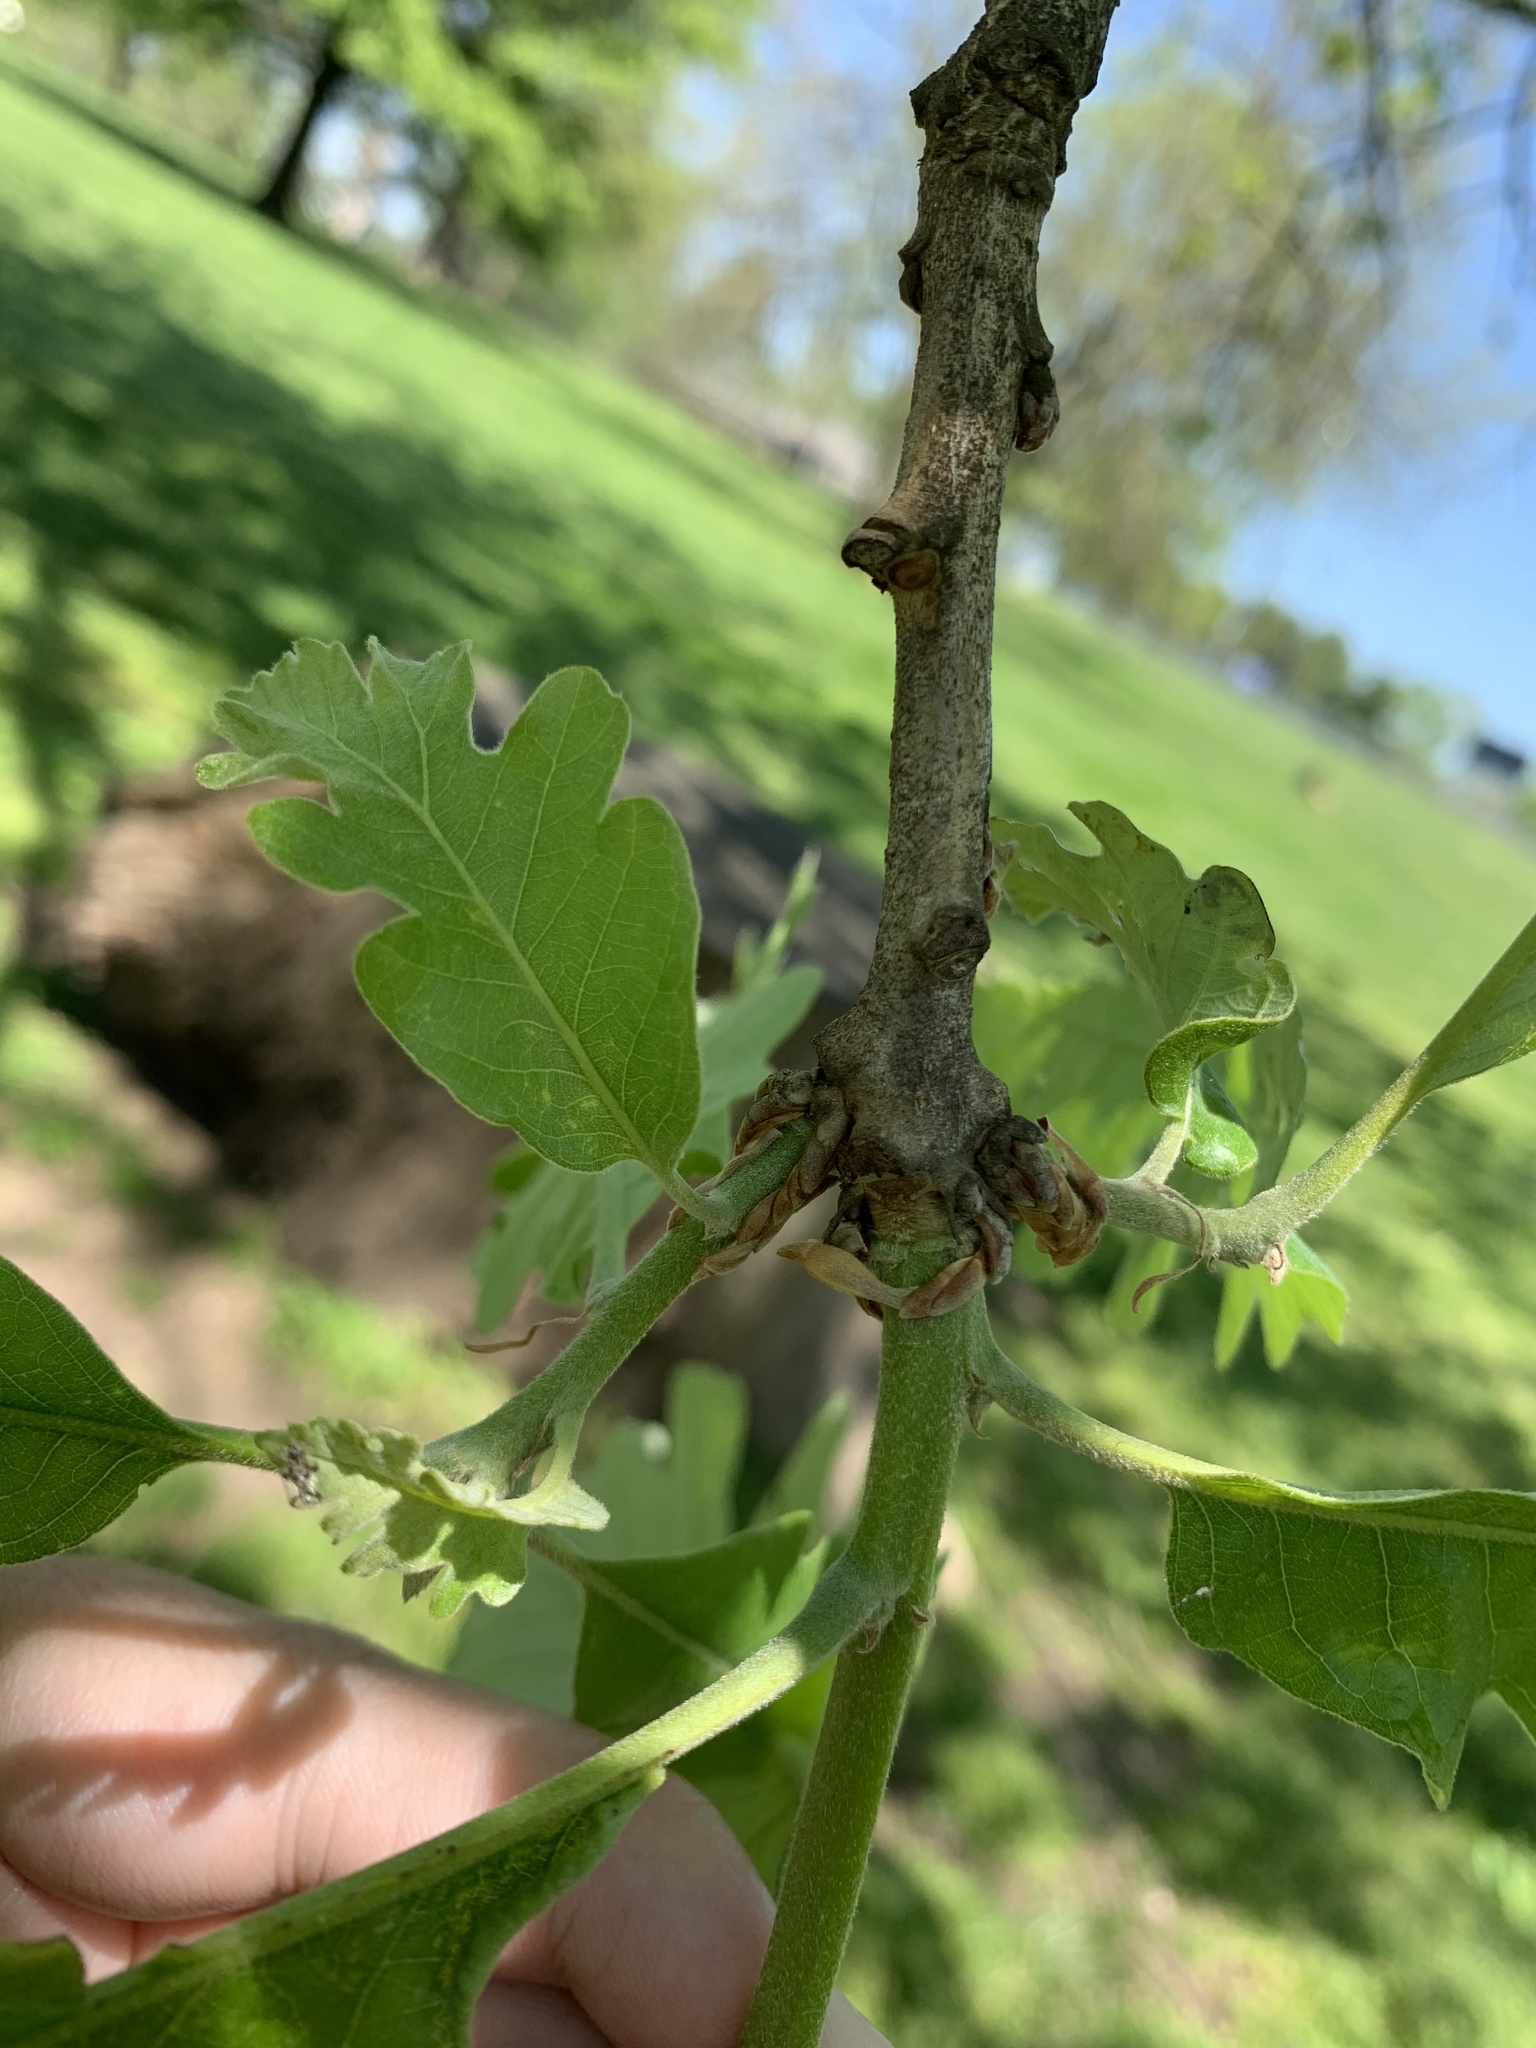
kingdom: Plantae
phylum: Tracheophyta
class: Magnoliopsida
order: Fagales
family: Fagaceae
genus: Quercus
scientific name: Quercus macrocarpa
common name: Bur oak
